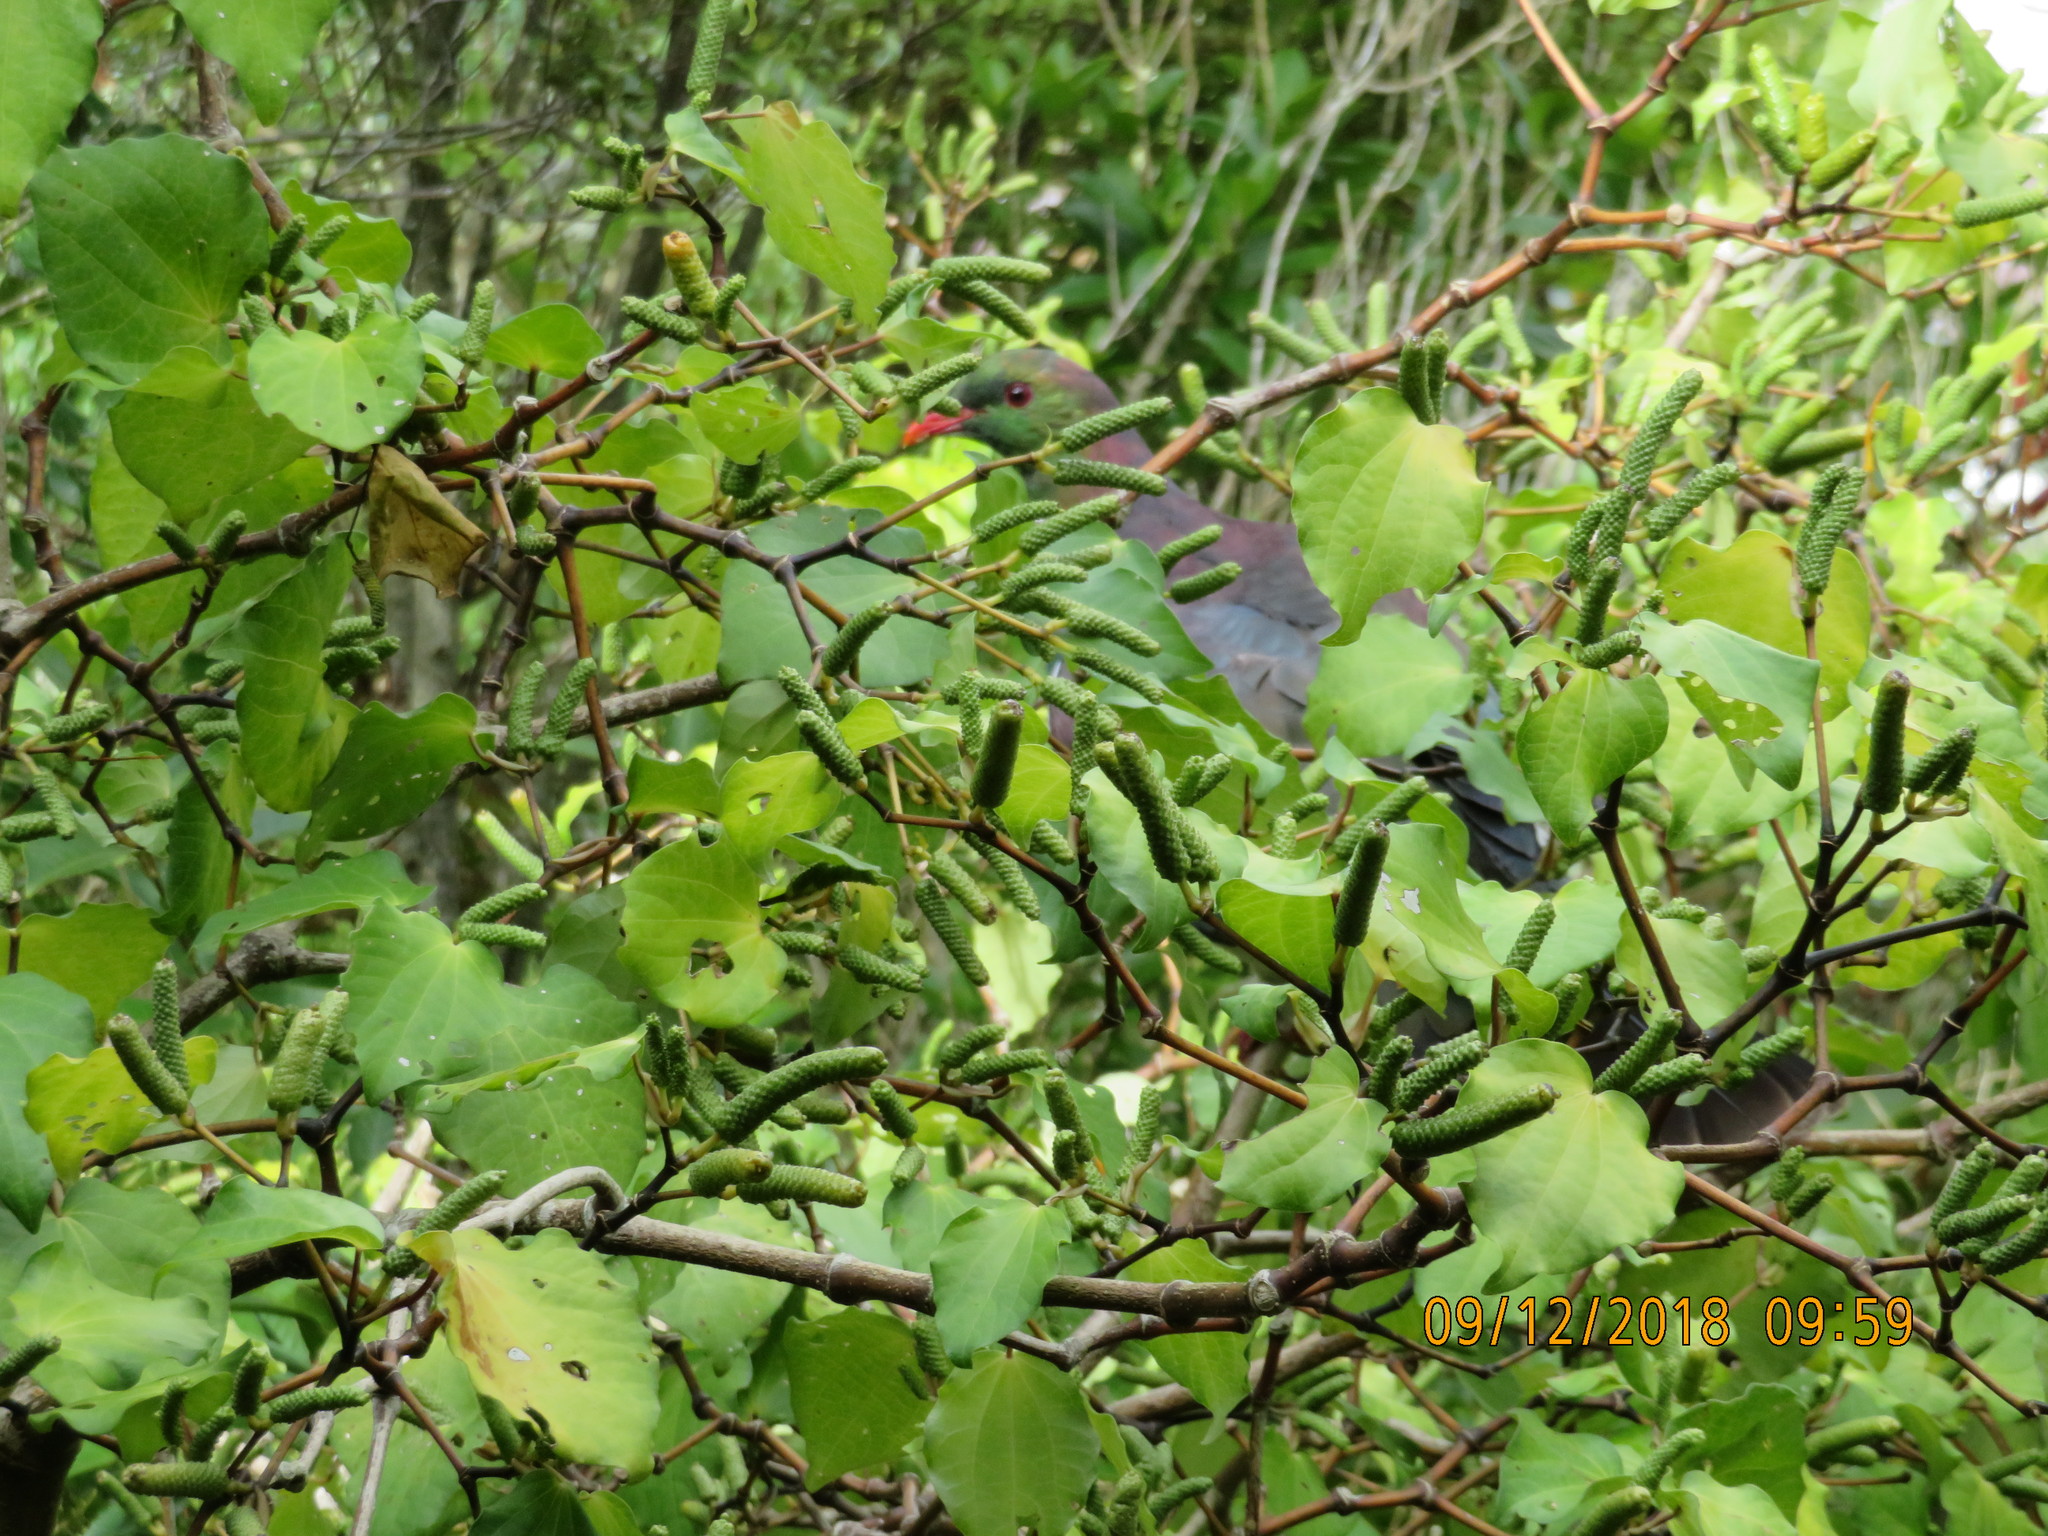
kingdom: Animalia
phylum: Chordata
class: Aves
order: Columbiformes
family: Columbidae
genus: Hemiphaga
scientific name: Hemiphaga novaeseelandiae
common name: New zealand pigeon
